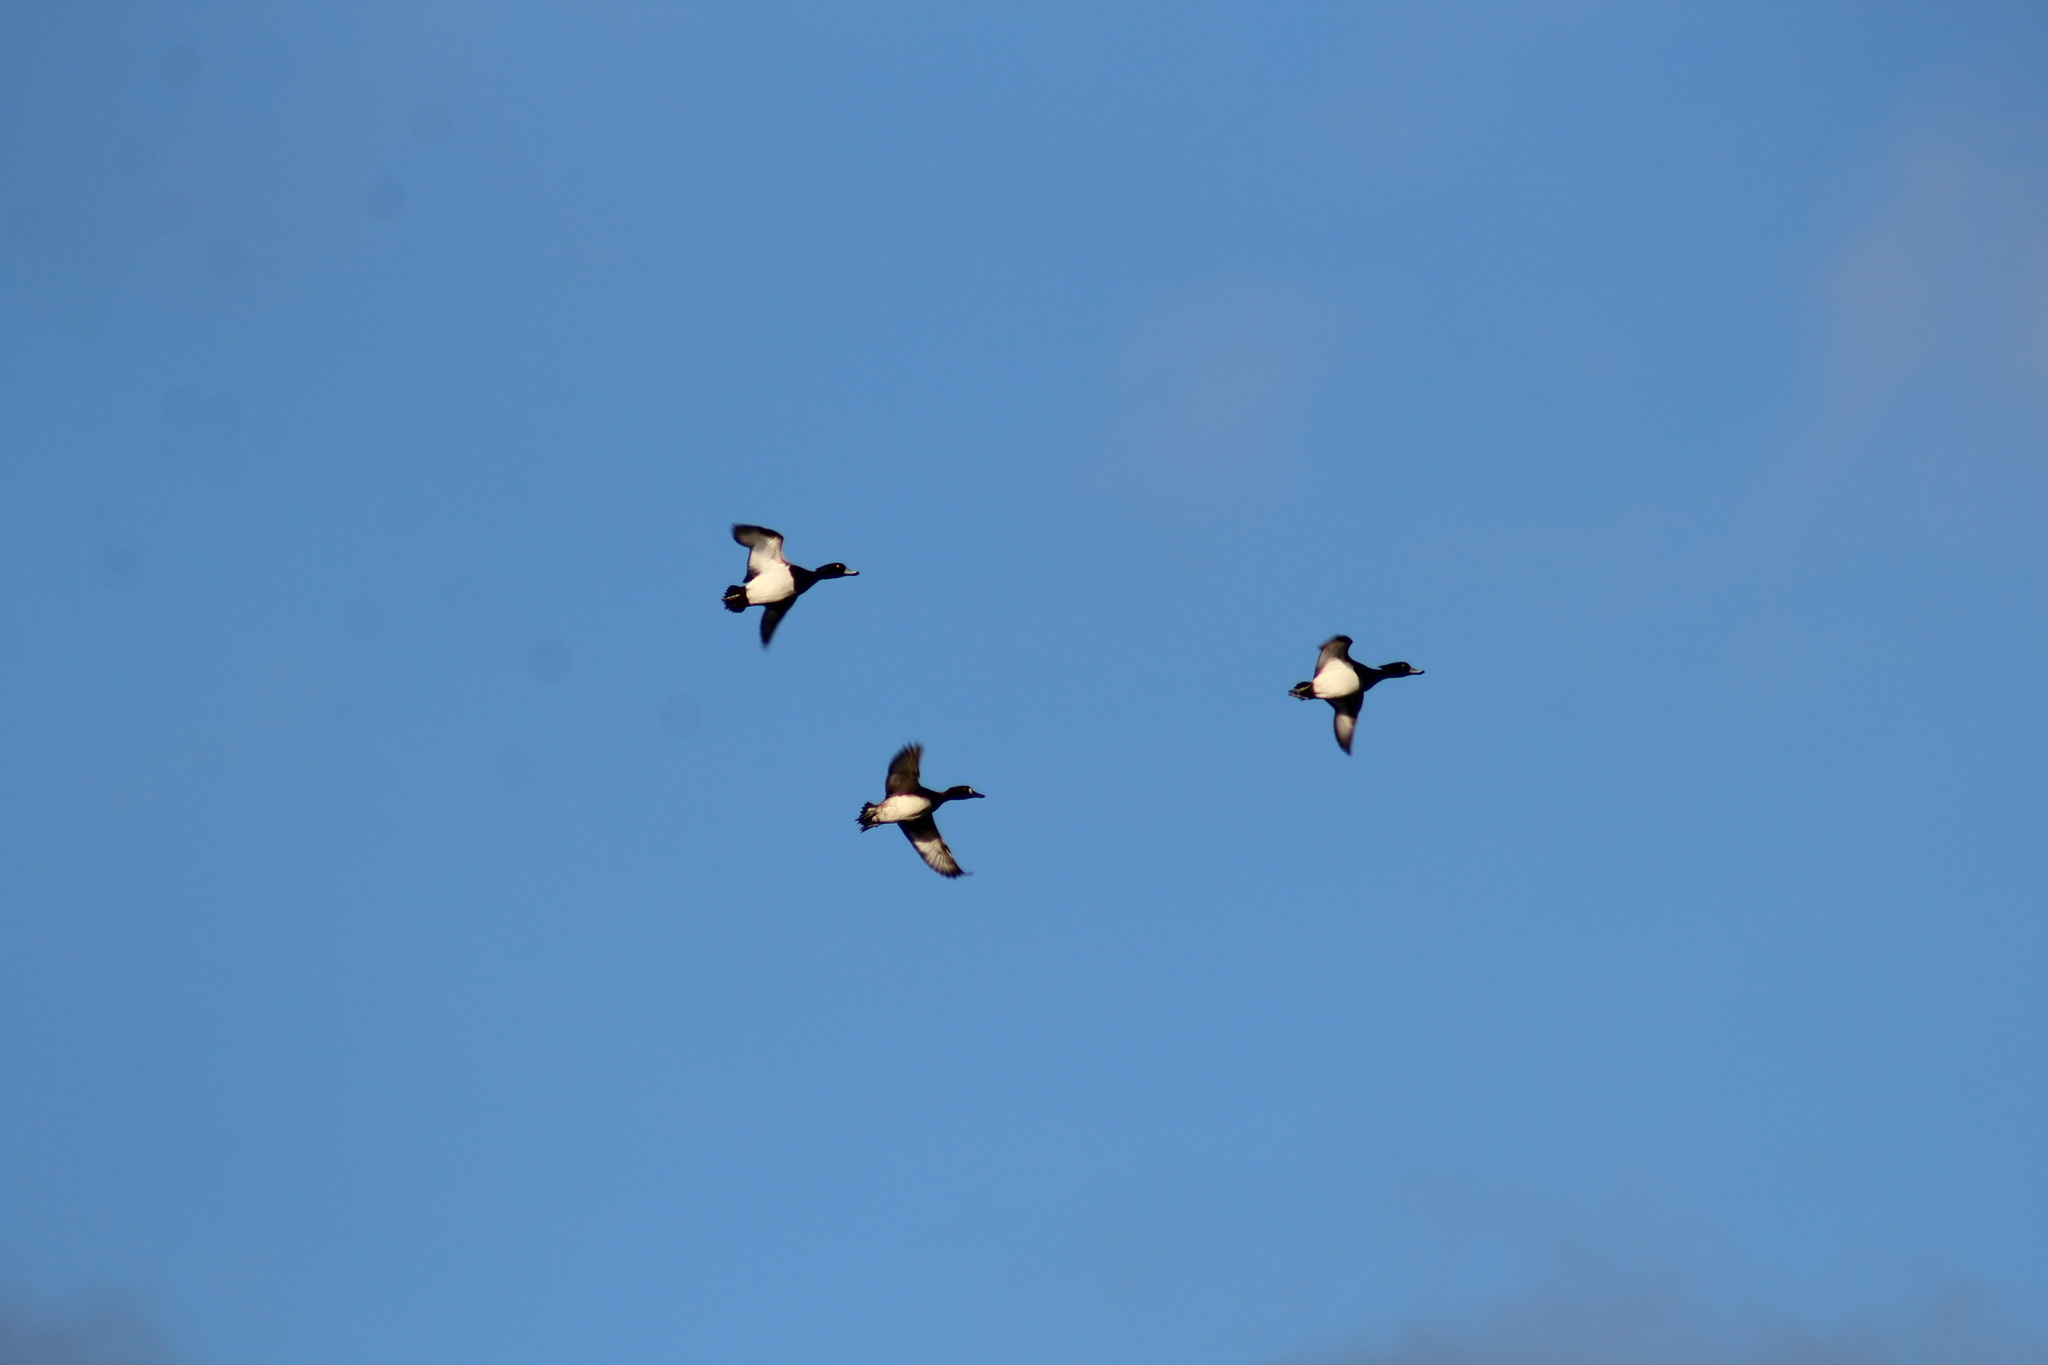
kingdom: Animalia
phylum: Chordata
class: Aves
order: Anseriformes
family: Anatidae
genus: Aythya
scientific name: Aythya fuligula
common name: Tufted duck
